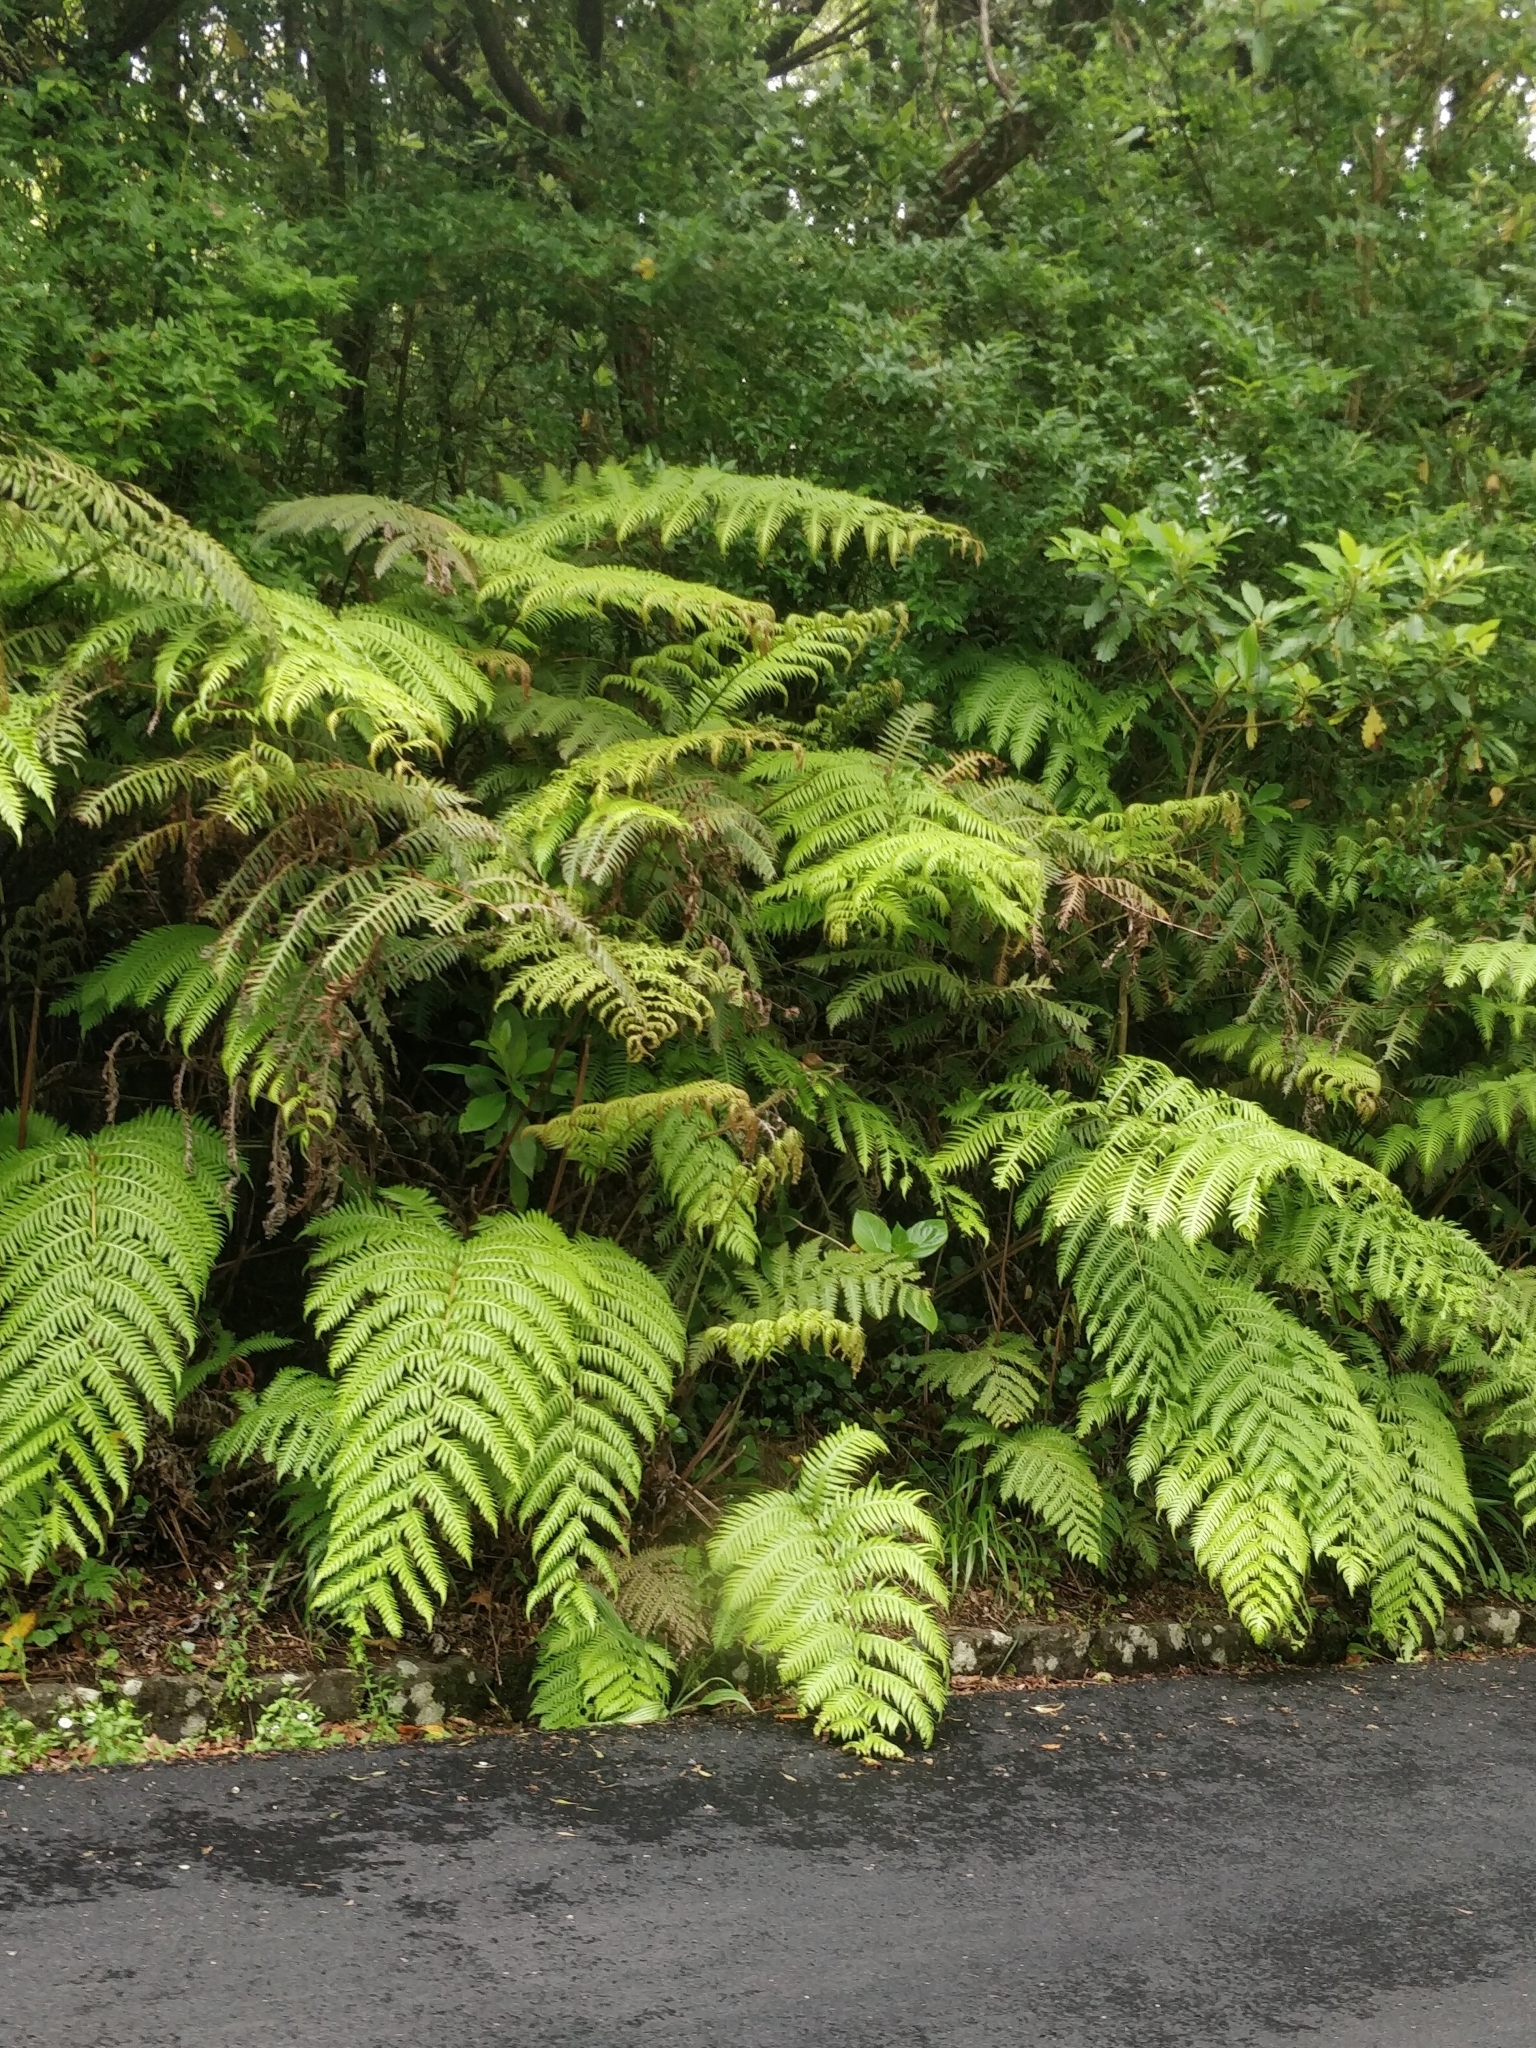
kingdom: Plantae
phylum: Tracheophyta
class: Polypodiopsida
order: Polypodiales
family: Blechnaceae
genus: Woodwardia
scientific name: Woodwardia radicans
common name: Rooting chainfern
